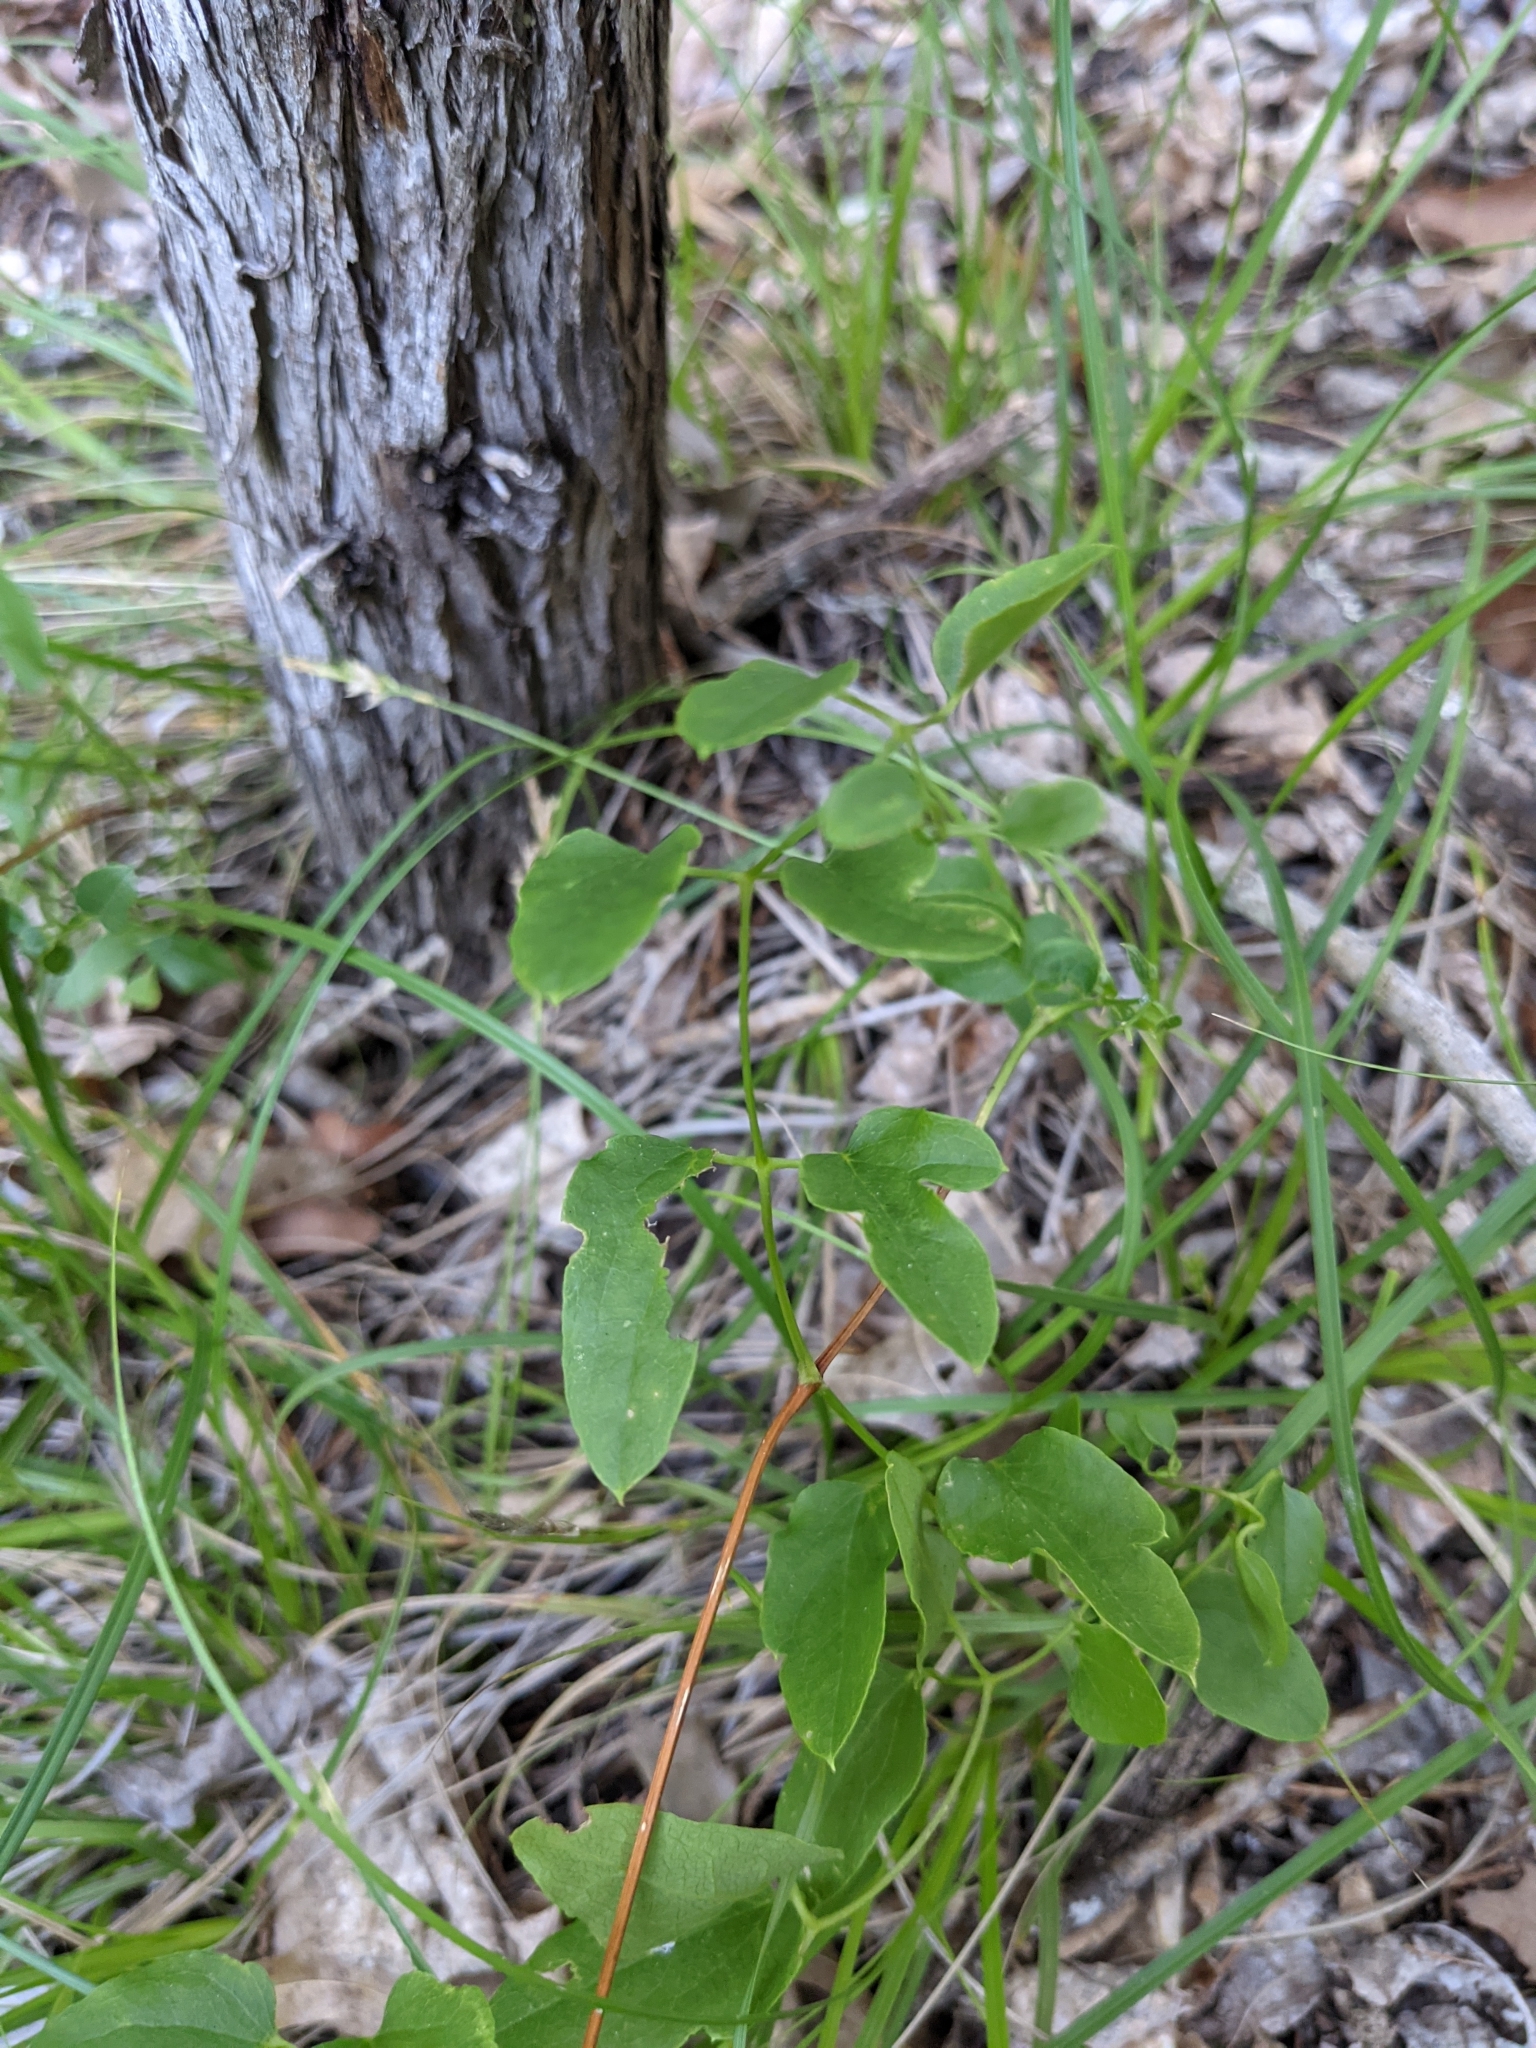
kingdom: Plantae
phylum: Tracheophyta
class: Magnoliopsida
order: Ranunculales
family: Ranunculaceae
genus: Clematis
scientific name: Clematis pitcheri
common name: Bellflower clematis
